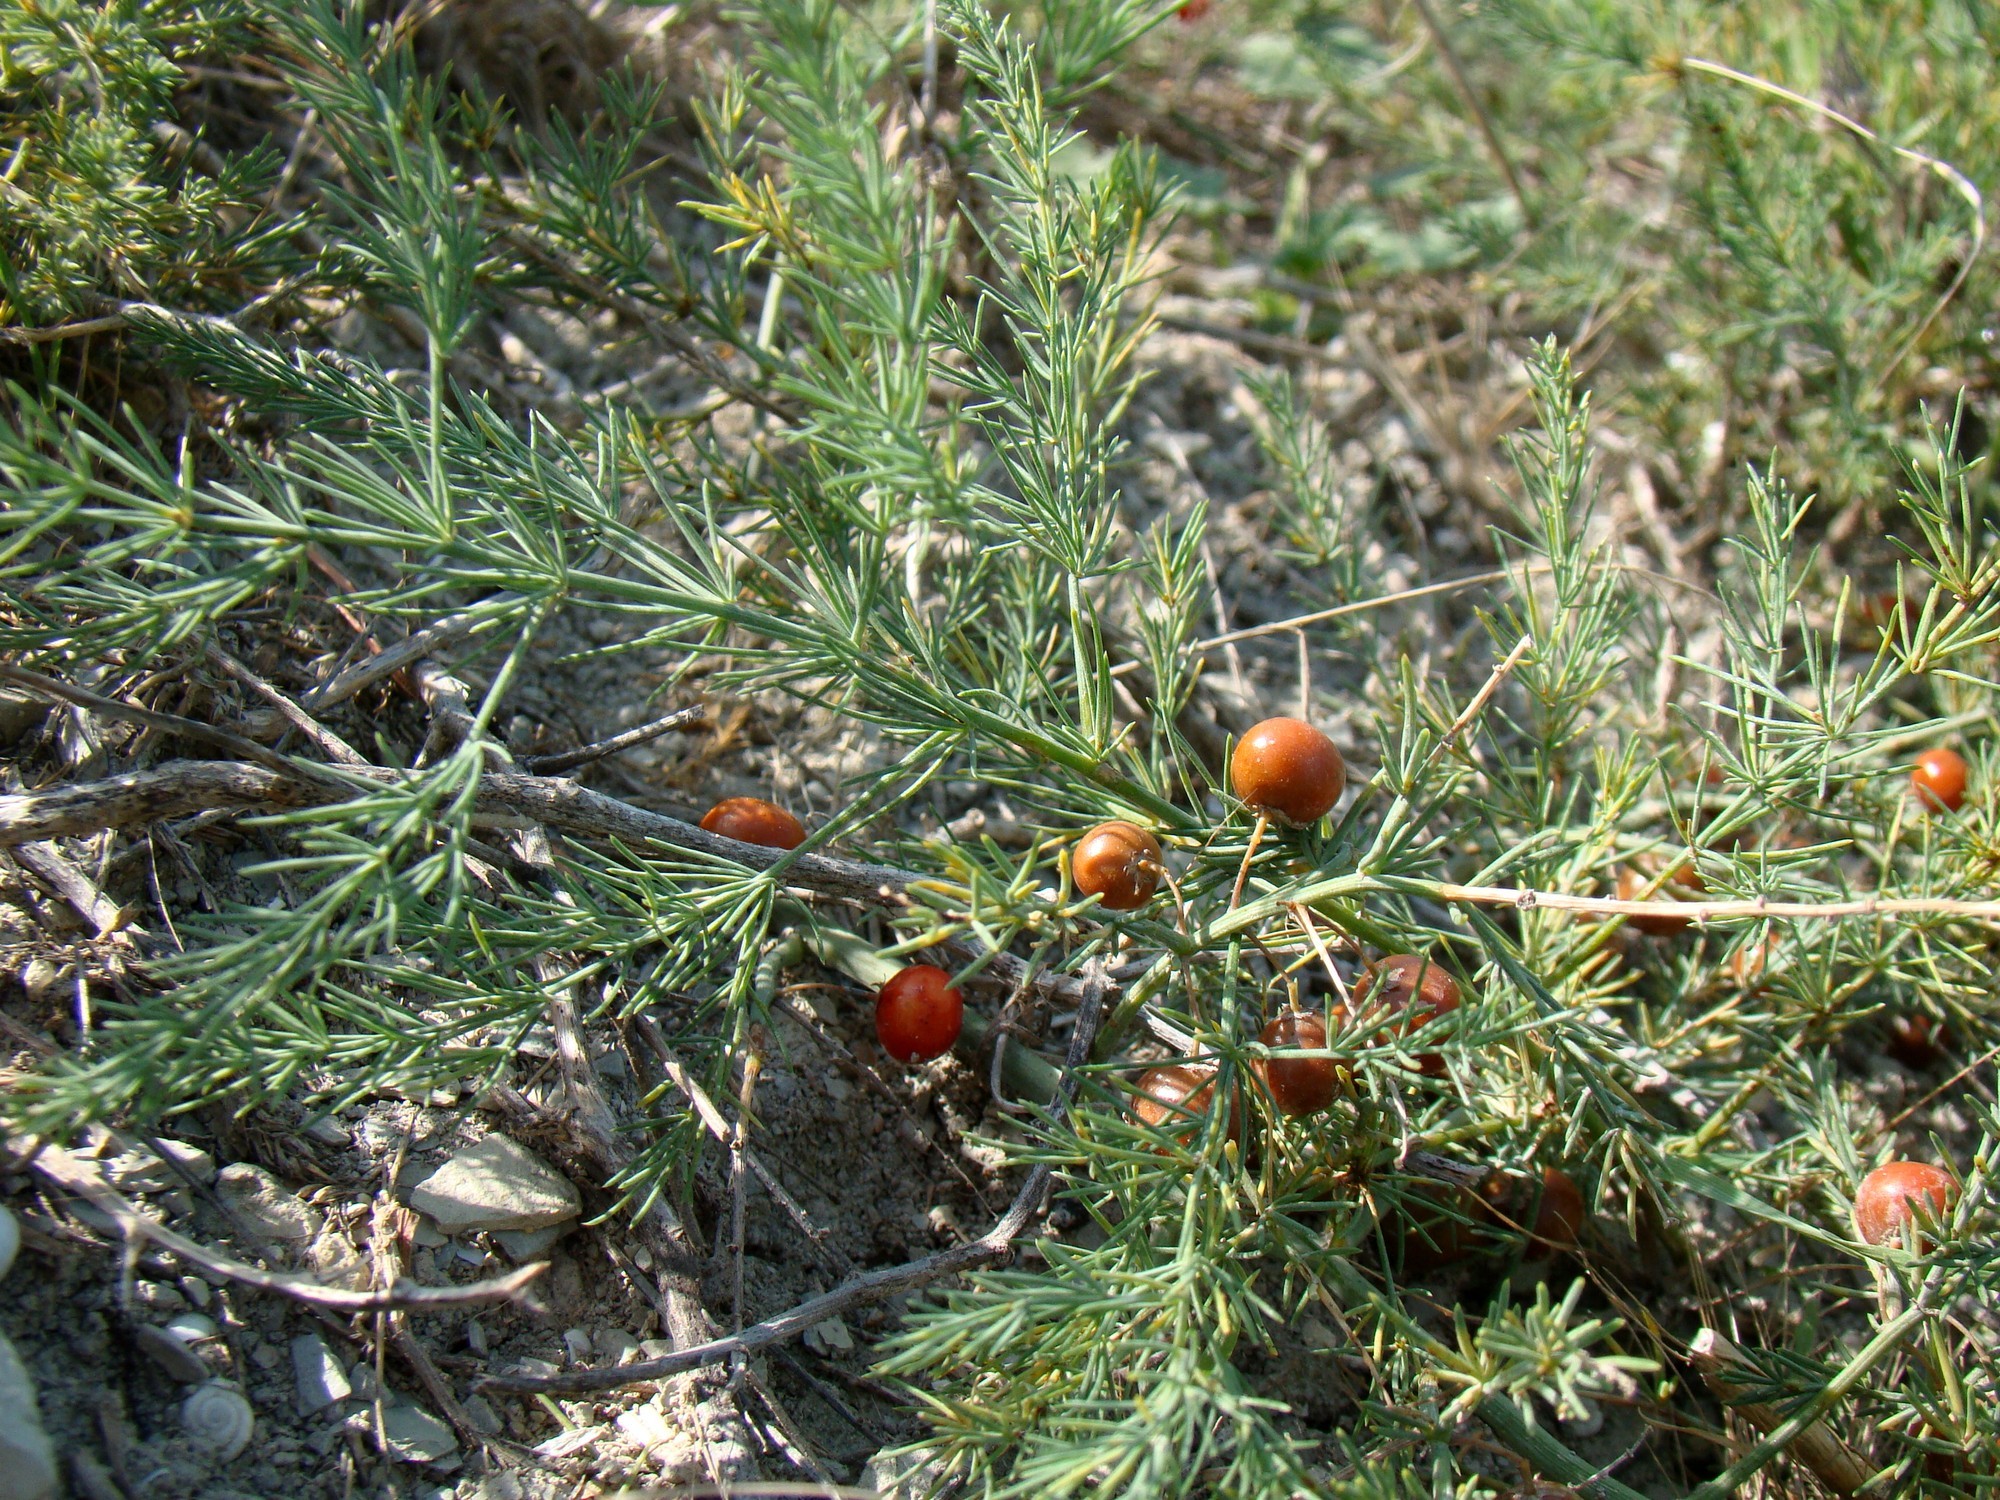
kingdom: Plantae
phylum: Tracheophyta
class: Liliopsida
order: Asparagales
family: Asparagaceae
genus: Asparagus
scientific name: Asparagus officinalis
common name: Garden asparagus
